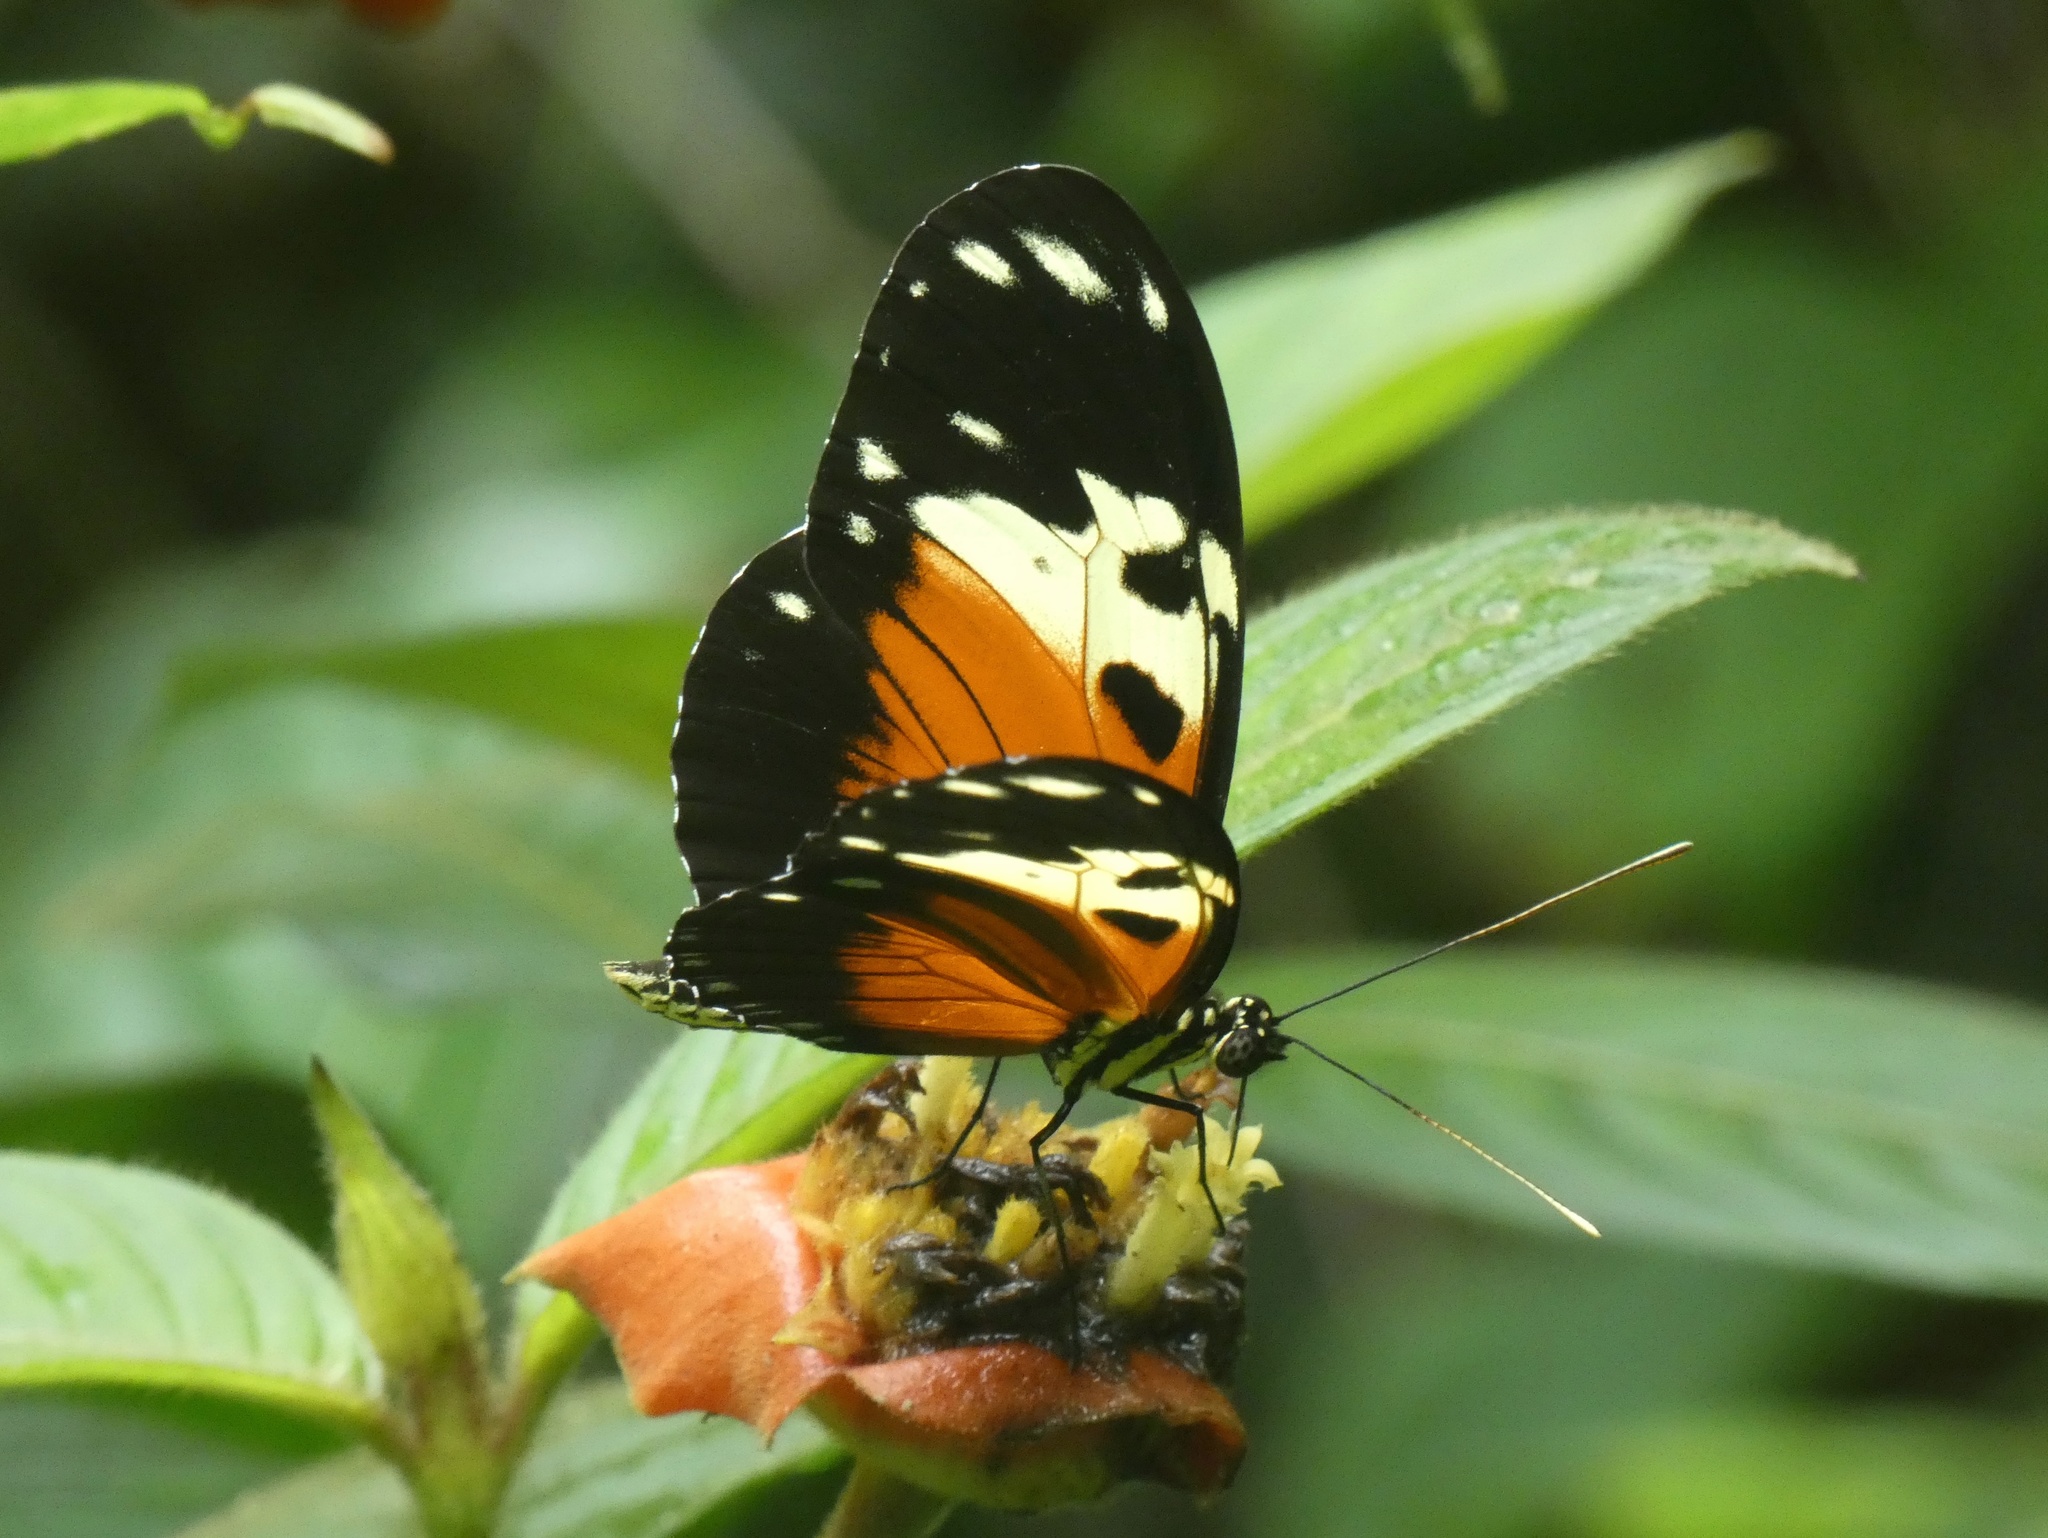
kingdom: Animalia
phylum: Arthropoda
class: Insecta
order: Lepidoptera
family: Nymphalidae
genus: Heliconius
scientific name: Heliconius hecale
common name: Tiger longwing
